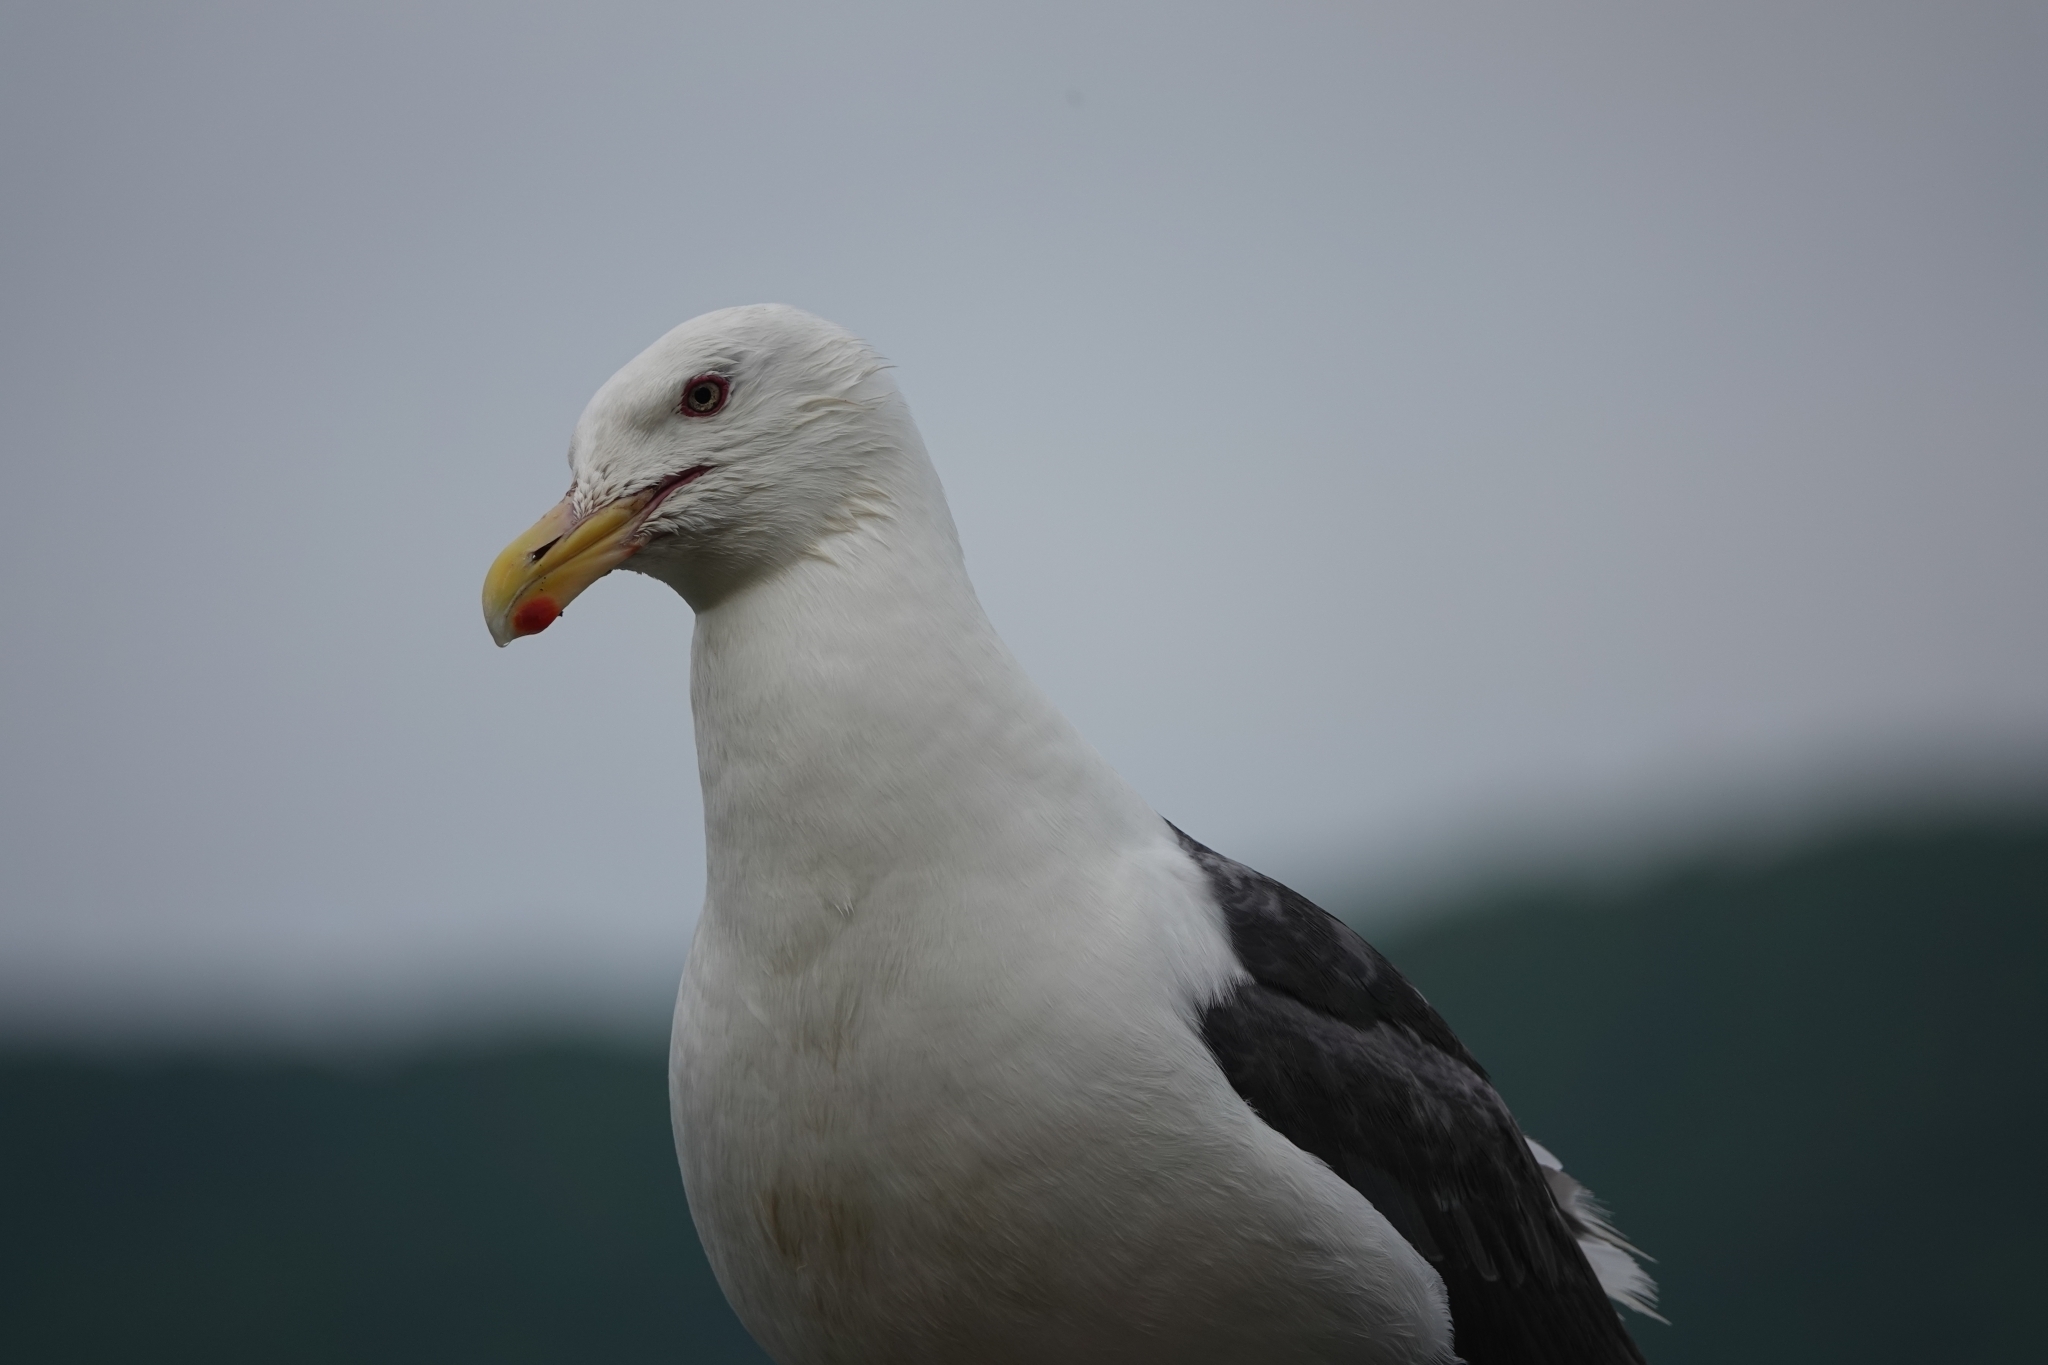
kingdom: Animalia
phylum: Chordata
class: Aves
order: Charadriiformes
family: Laridae
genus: Larus
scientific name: Larus schistisagus
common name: Slaty-backed gull
